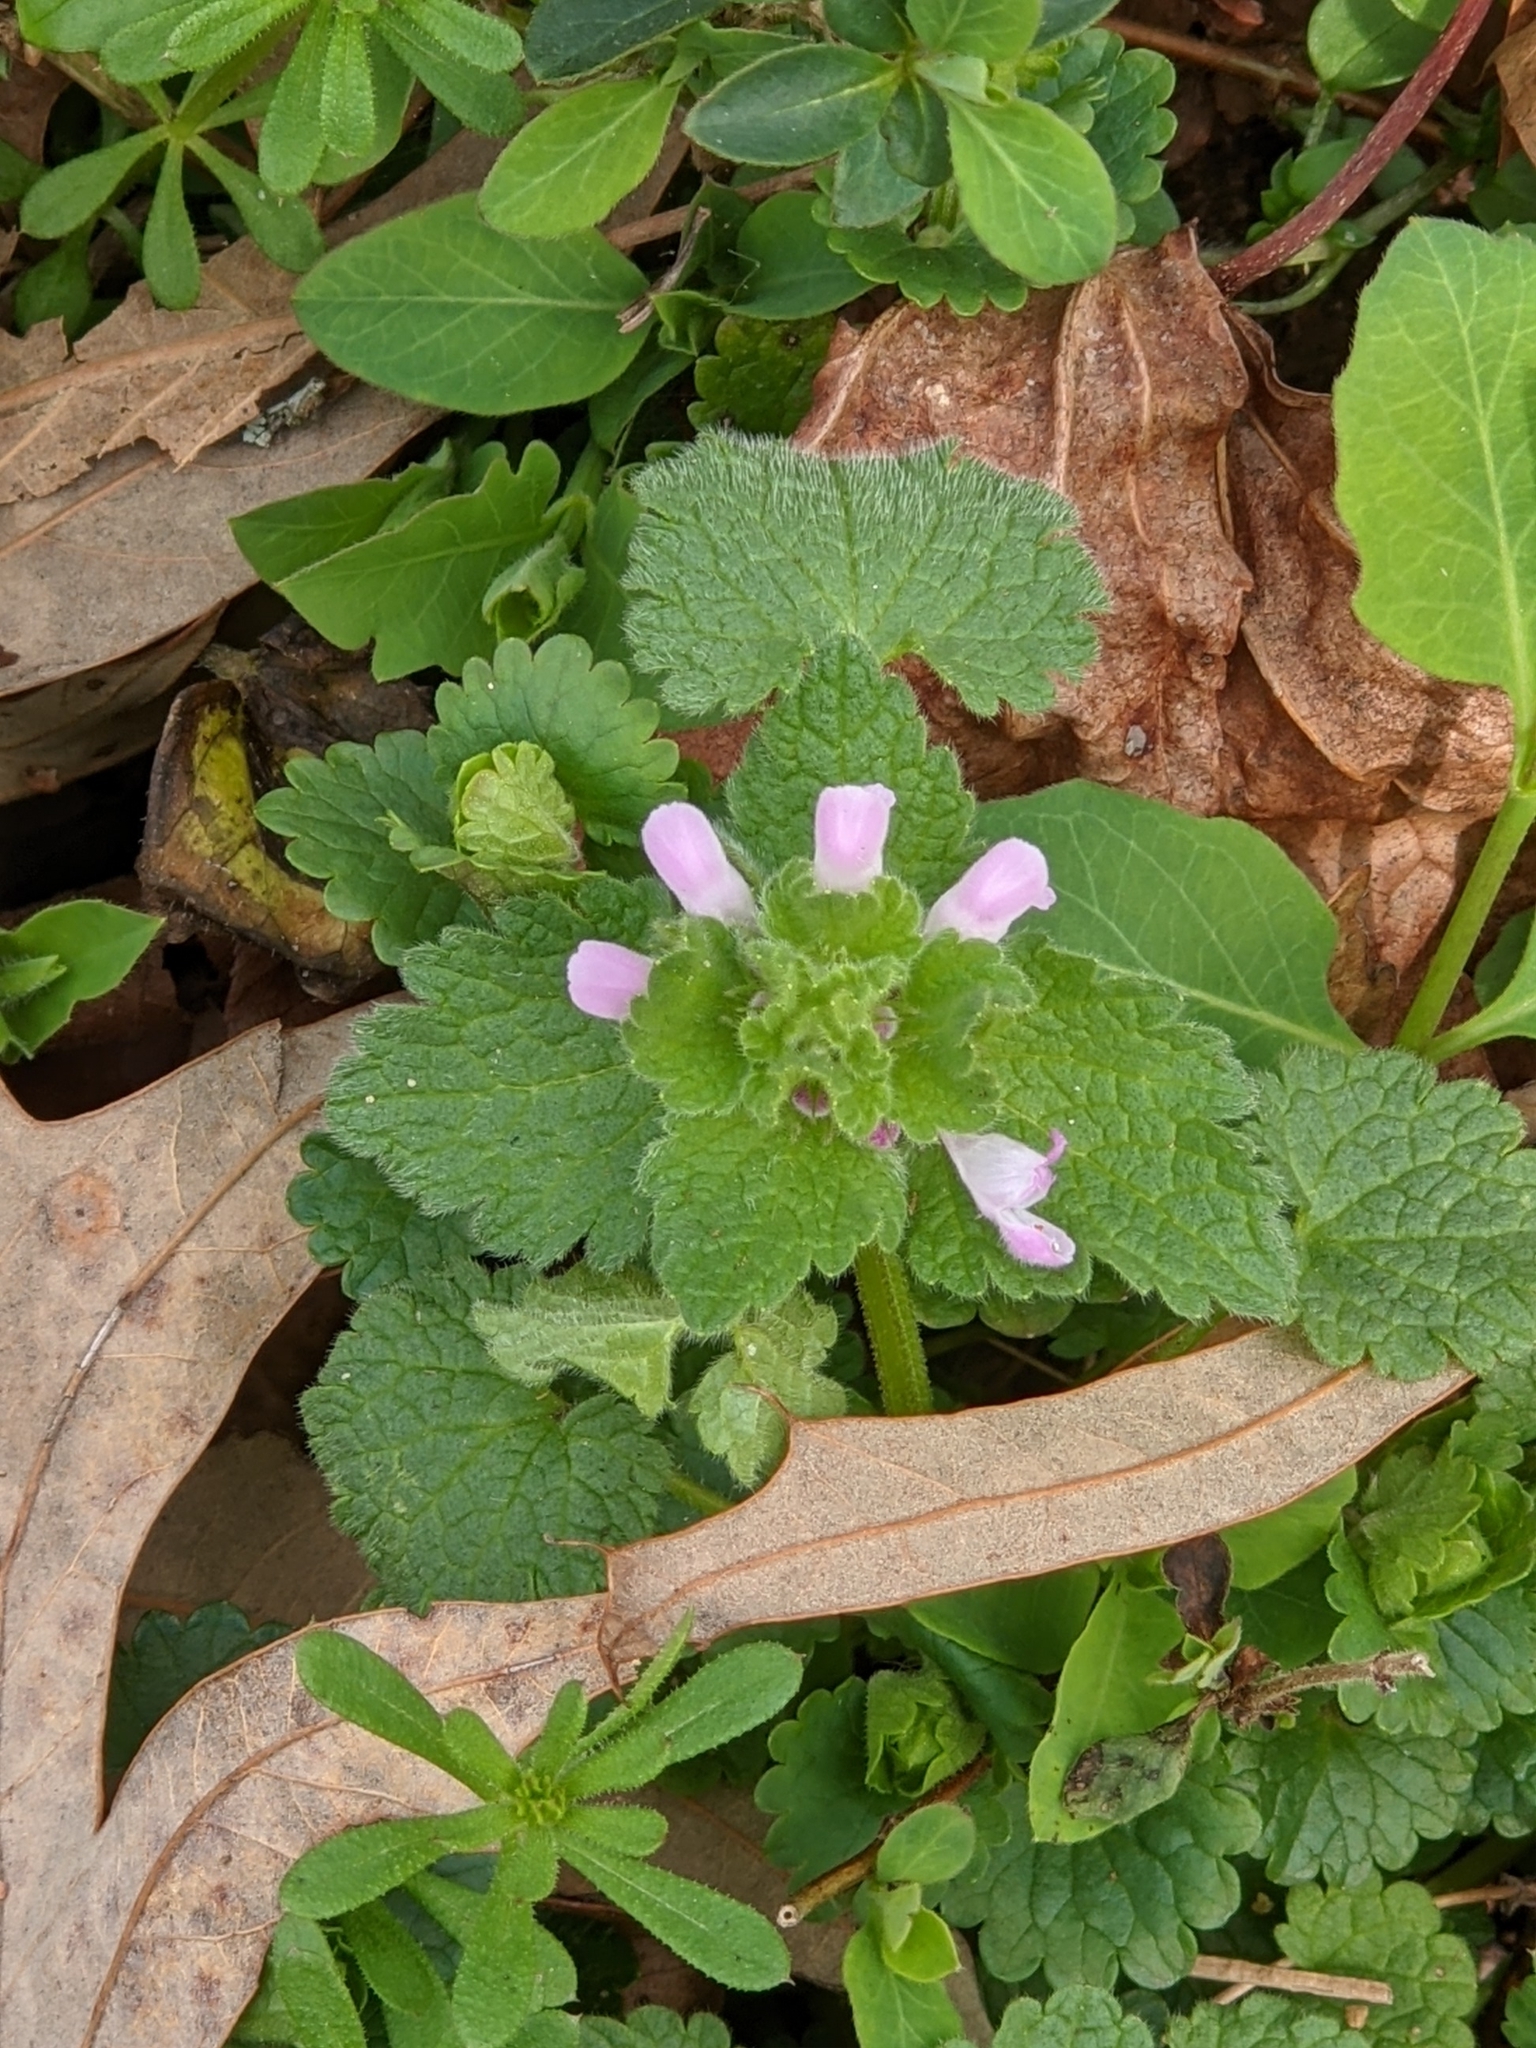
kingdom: Plantae
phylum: Tracheophyta
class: Magnoliopsida
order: Lamiales
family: Lamiaceae
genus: Lamium
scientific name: Lamium purpureum
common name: Red dead-nettle
